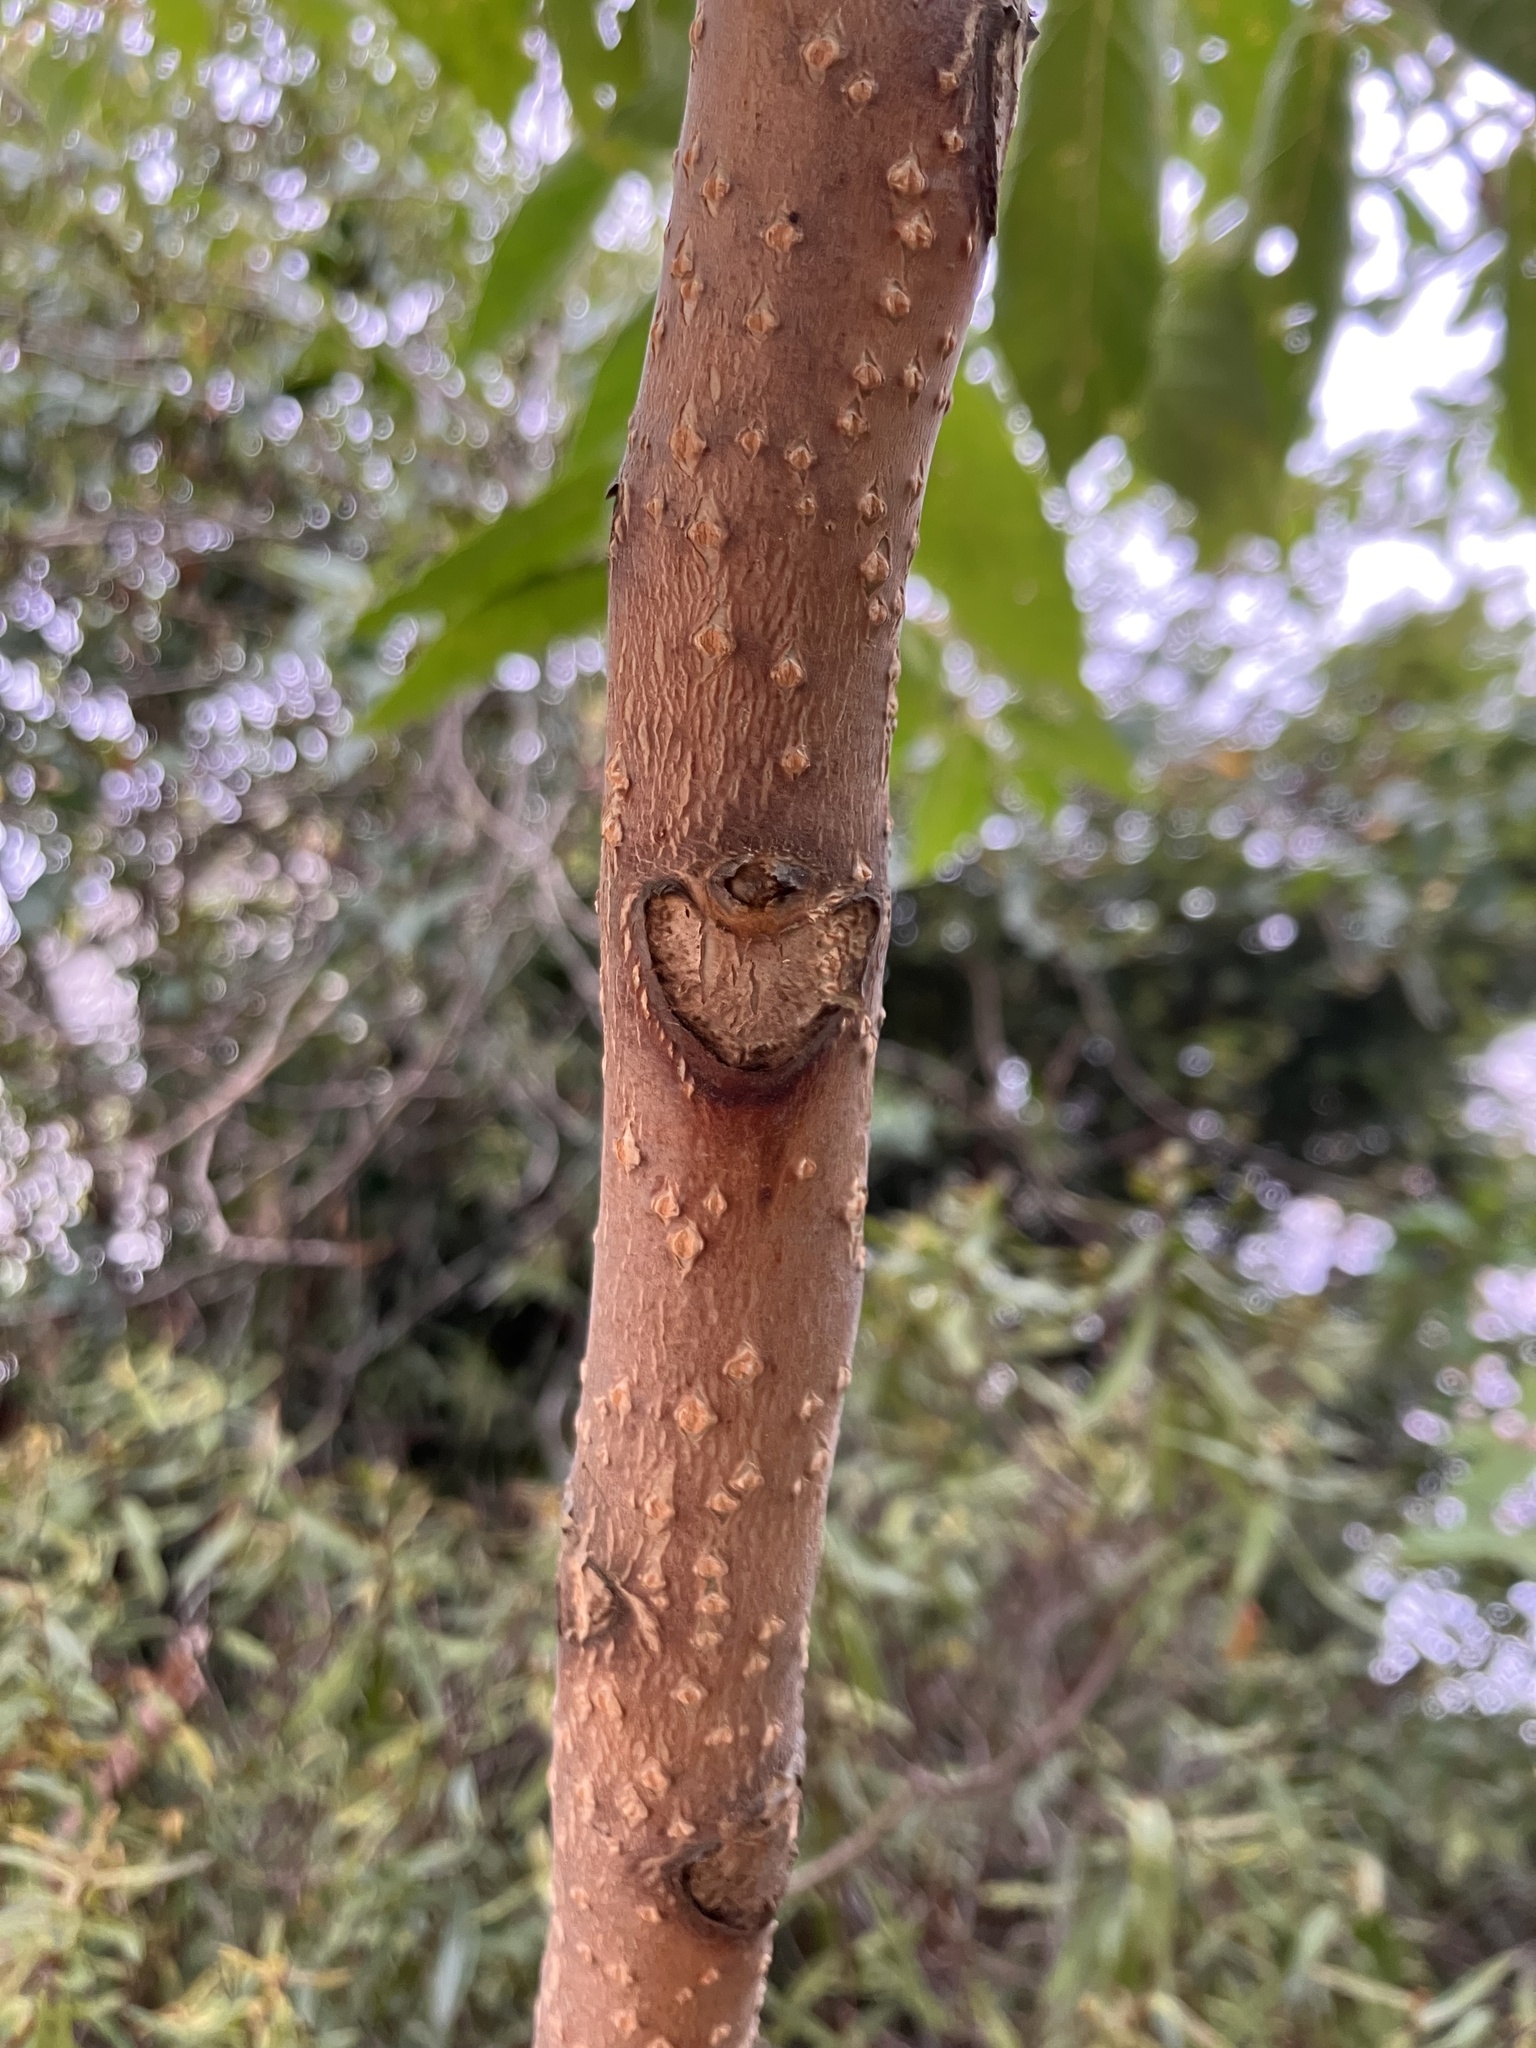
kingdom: Plantae
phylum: Tracheophyta
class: Magnoliopsida
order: Sapindales
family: Simaroubaceae
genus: Ailanthus
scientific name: Ailanthus altissima
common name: Tree-of-heaven
